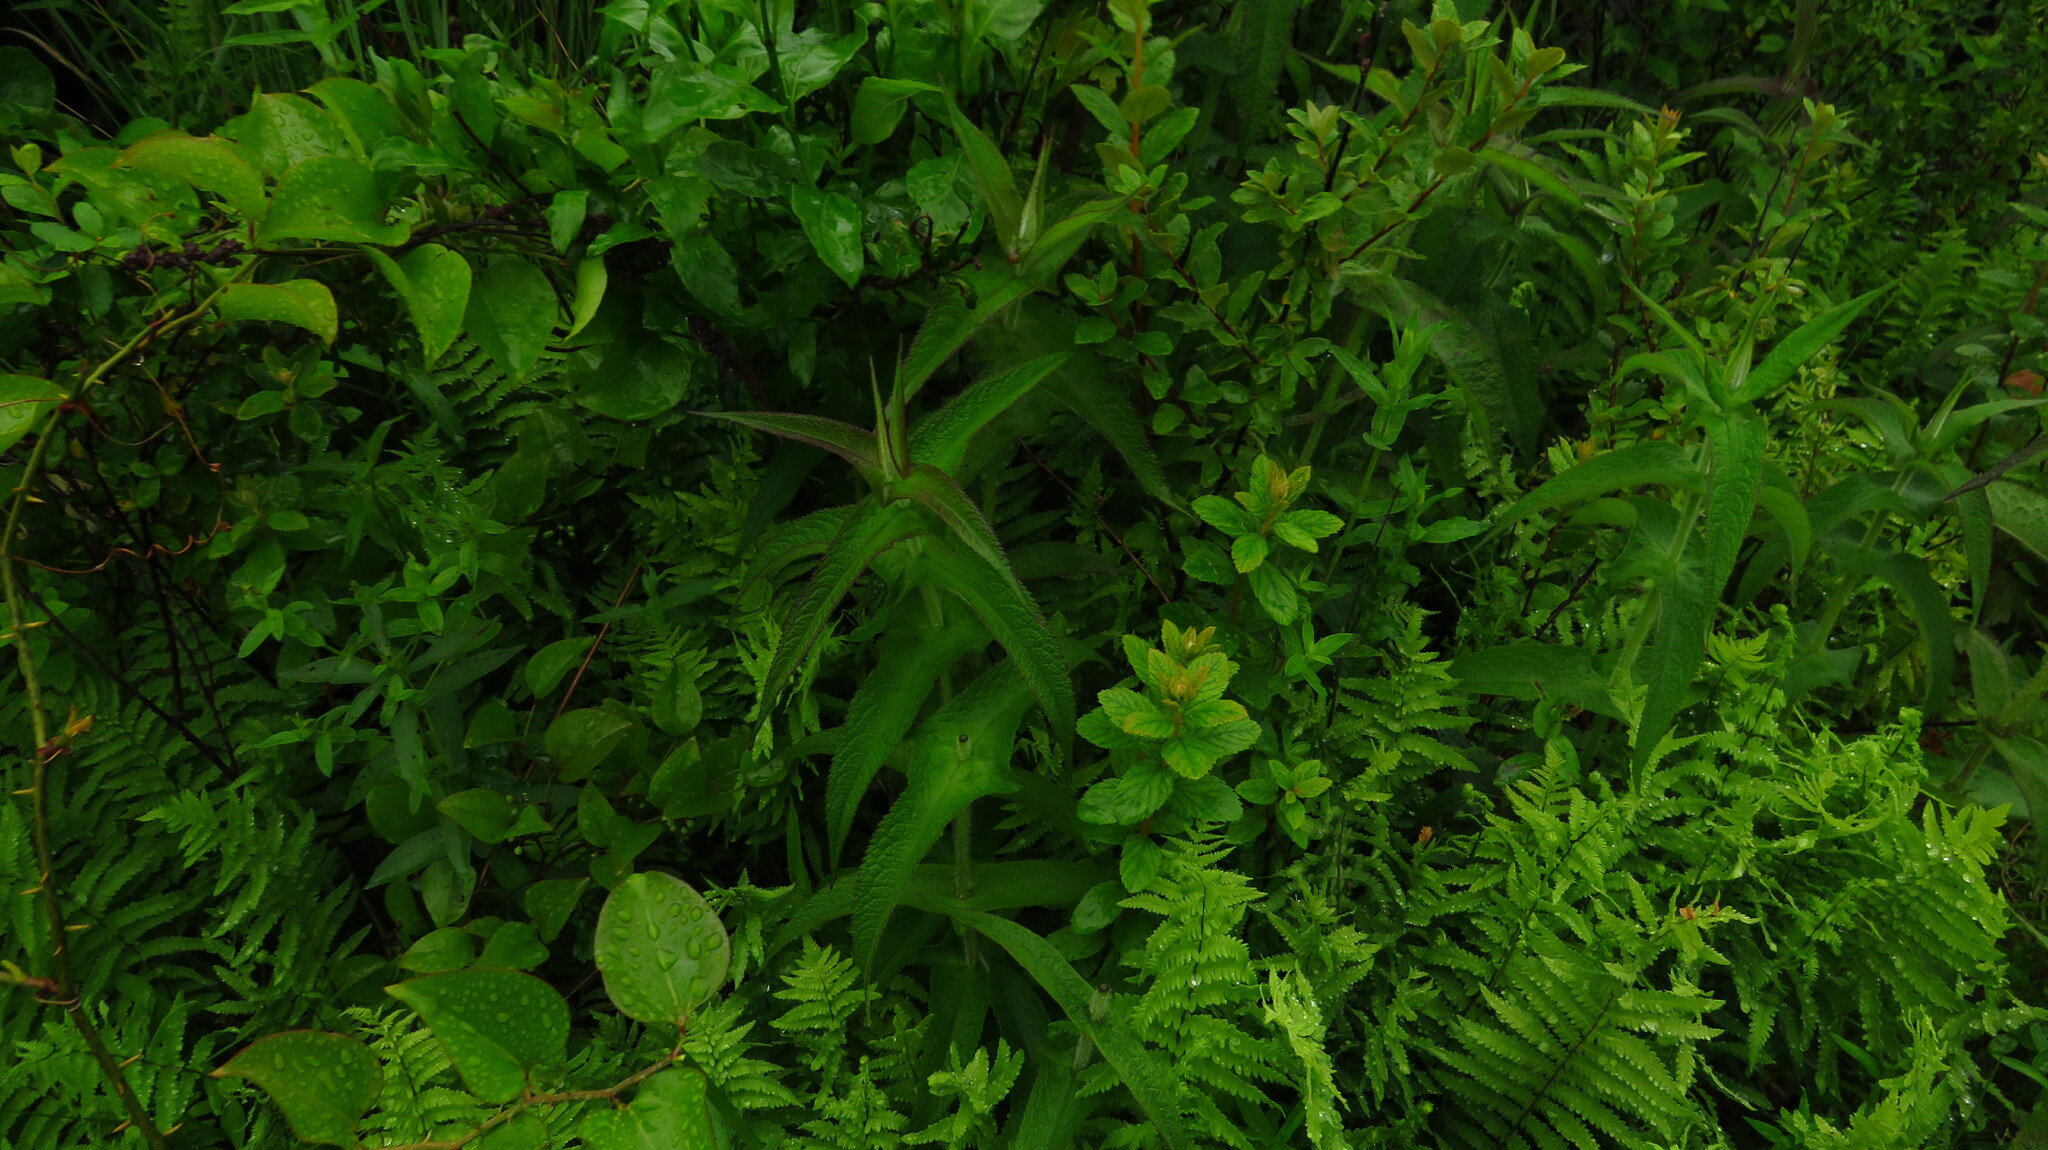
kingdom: Plantae
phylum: Tracheophyta
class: Magnoliopsida
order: Asterales
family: Asteraceae
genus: Eupatorium
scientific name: Eupatorium perfoliatum
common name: Boneset
